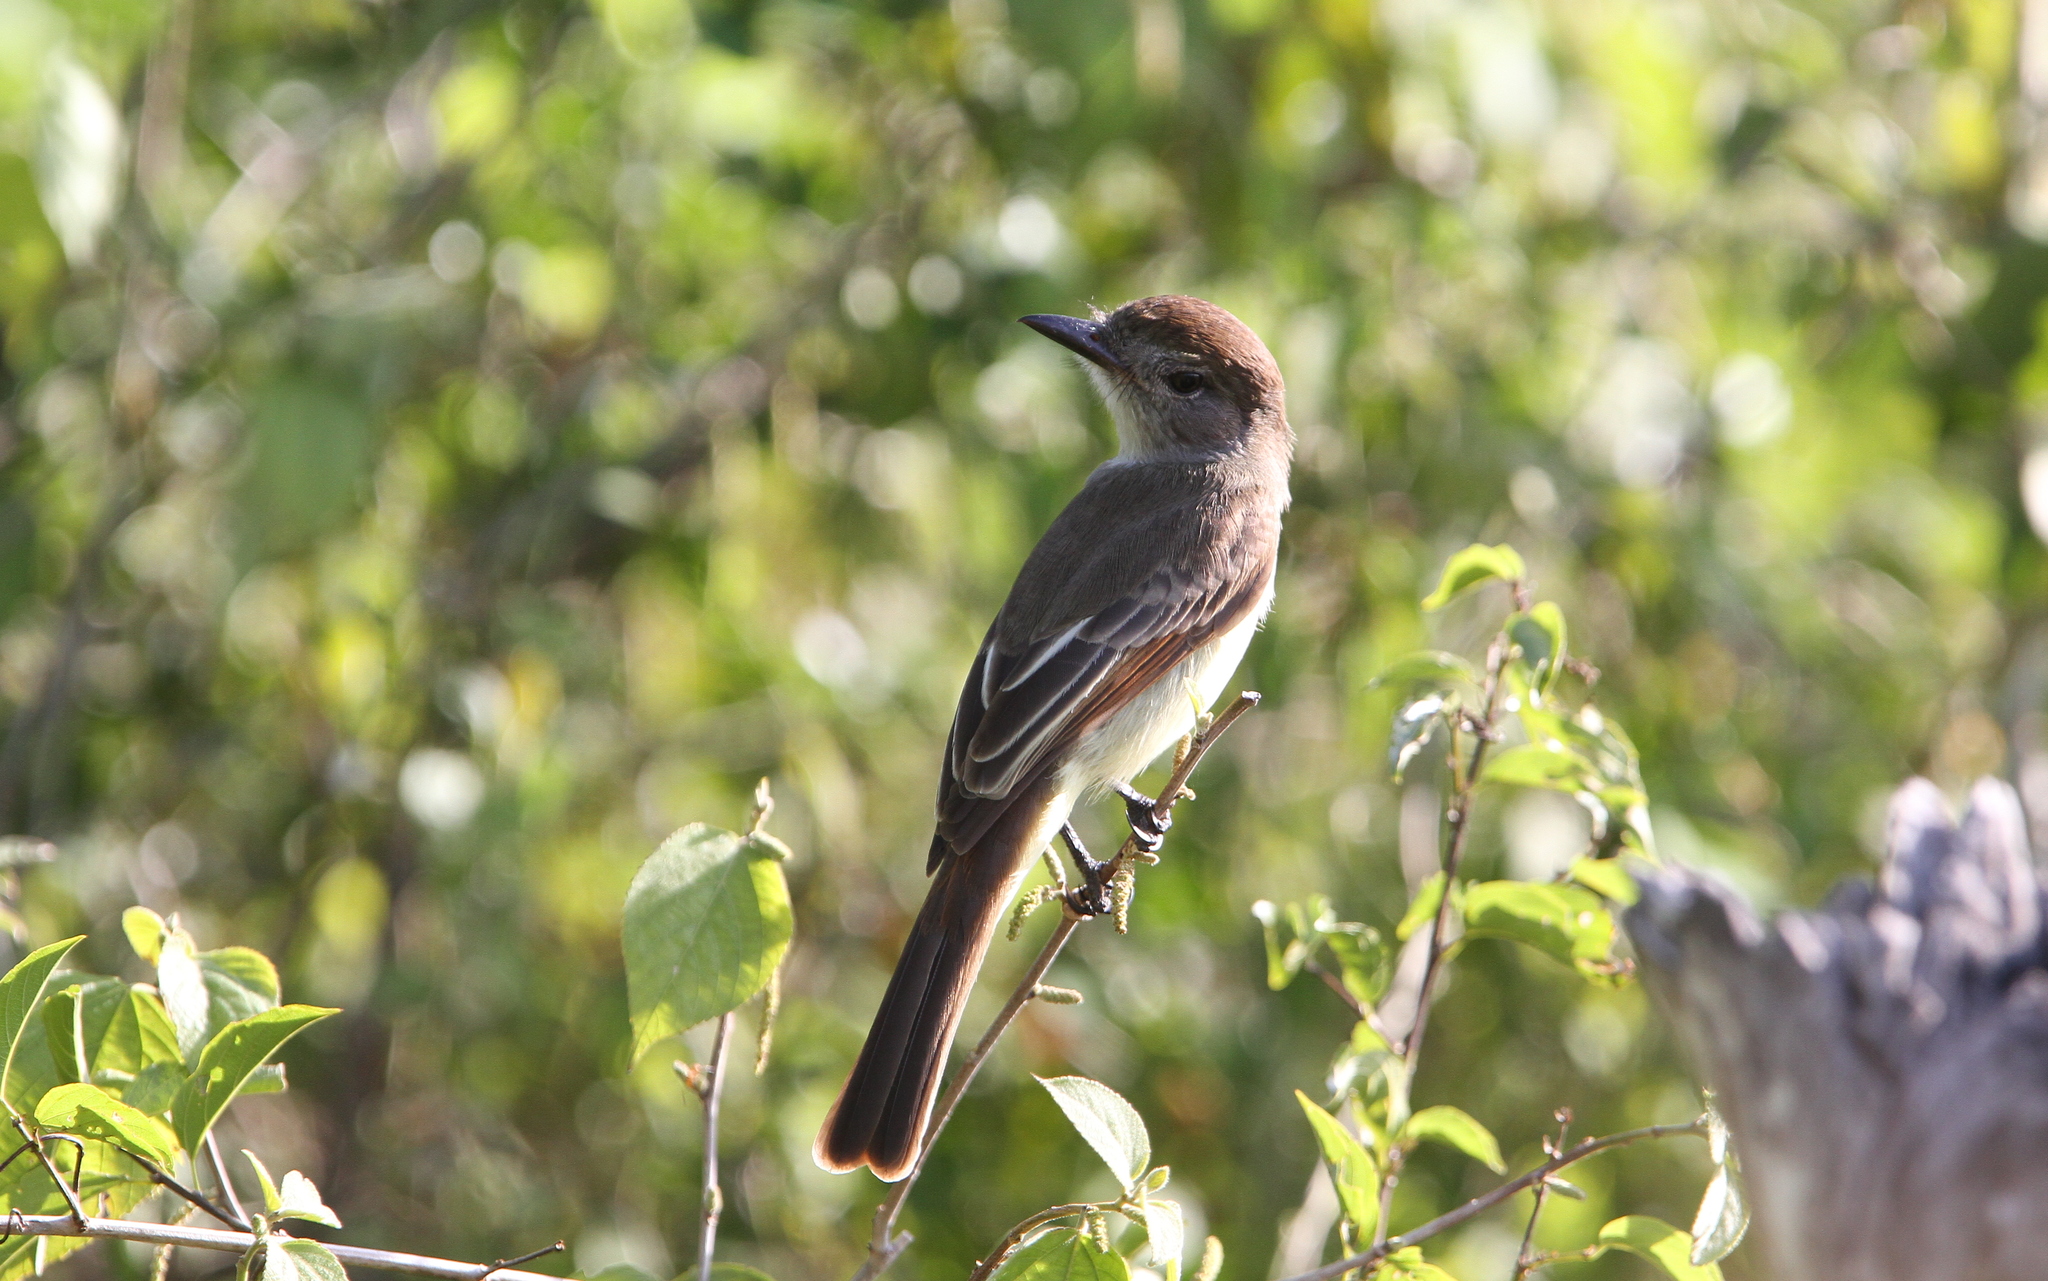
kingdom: Animalia
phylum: Chordata
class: Aves
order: Passeriformes
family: Tyrannidae
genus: Myiarchus
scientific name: Myiarchus yucatanensis
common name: Yucatan flycatcher
